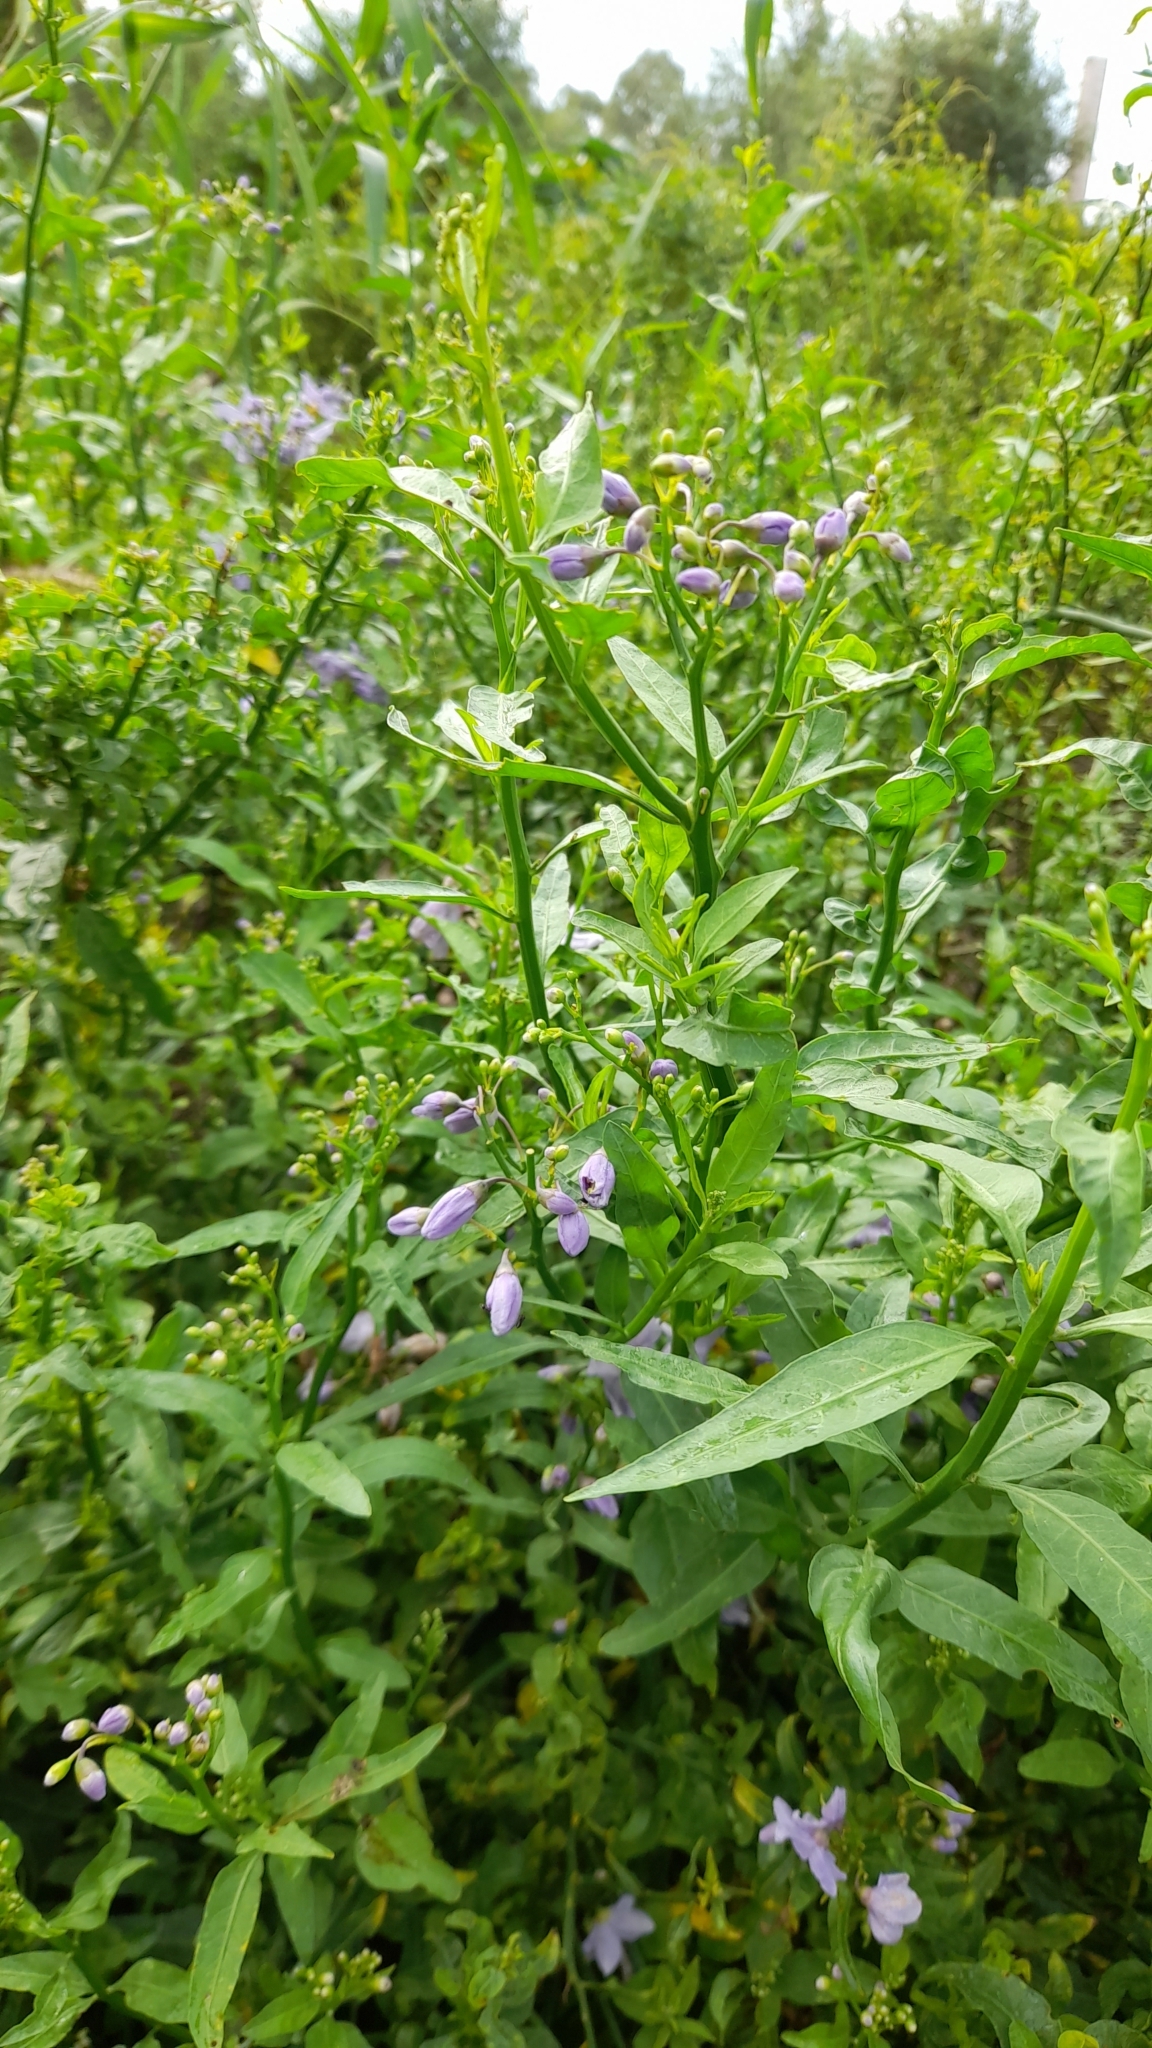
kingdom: Plantae
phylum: Tracheophyta
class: Magnoliopsida
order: Solanales
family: Solanaceae
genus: Solanum
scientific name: Solanum amygdalifolium
